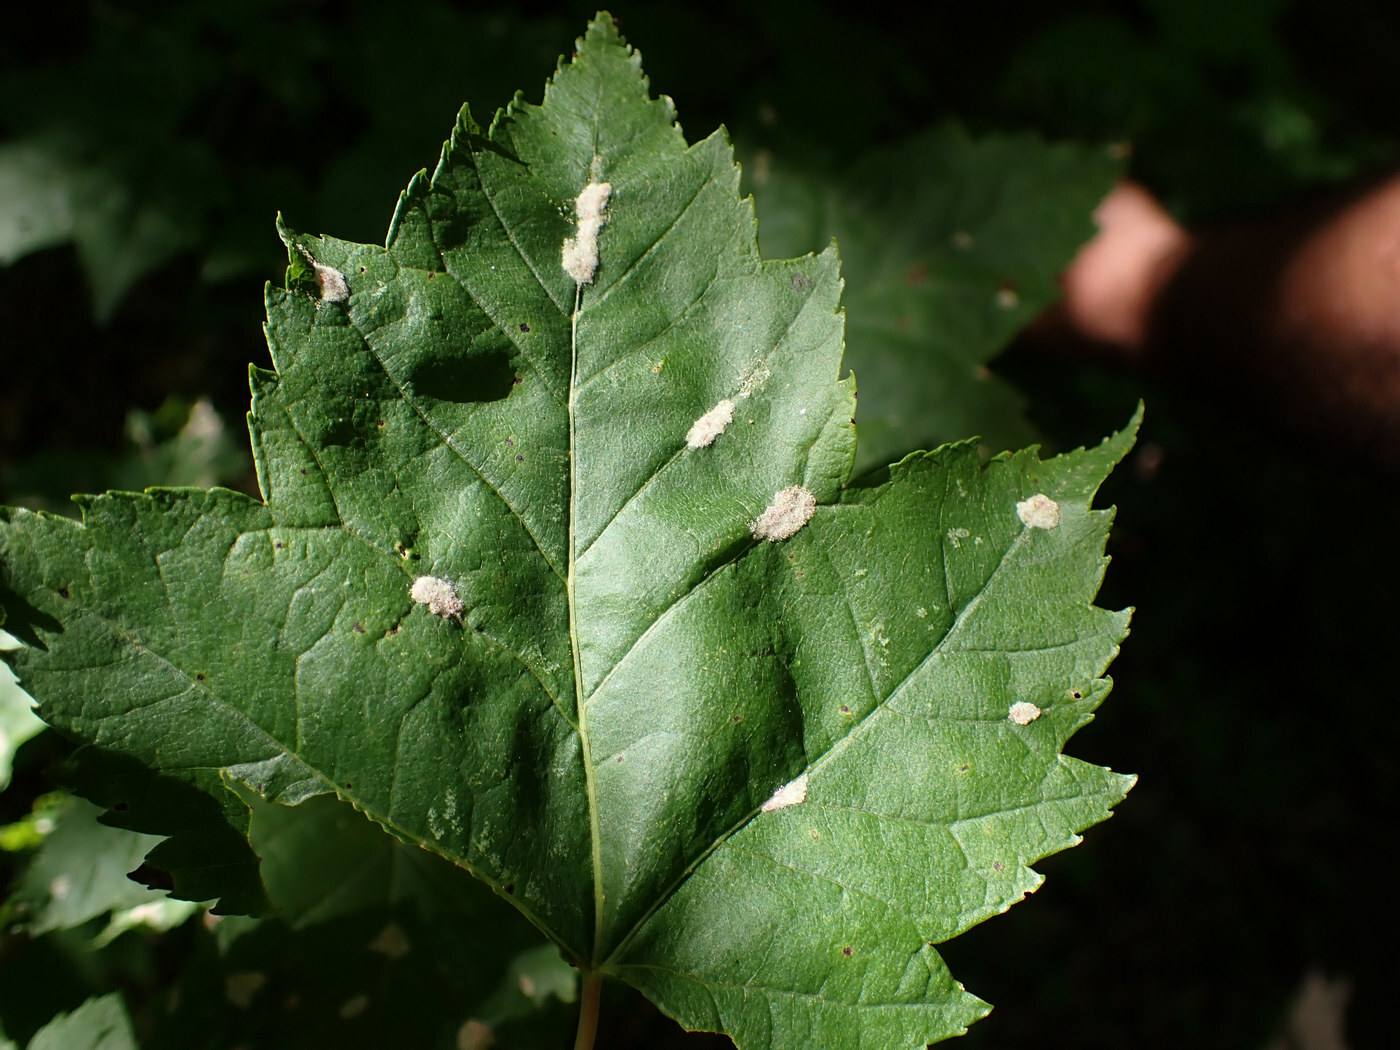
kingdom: Animalia
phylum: Arthropoda
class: Arachnida
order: Trombidiformes
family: Eriophyidae
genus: Aculus
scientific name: Aculus
